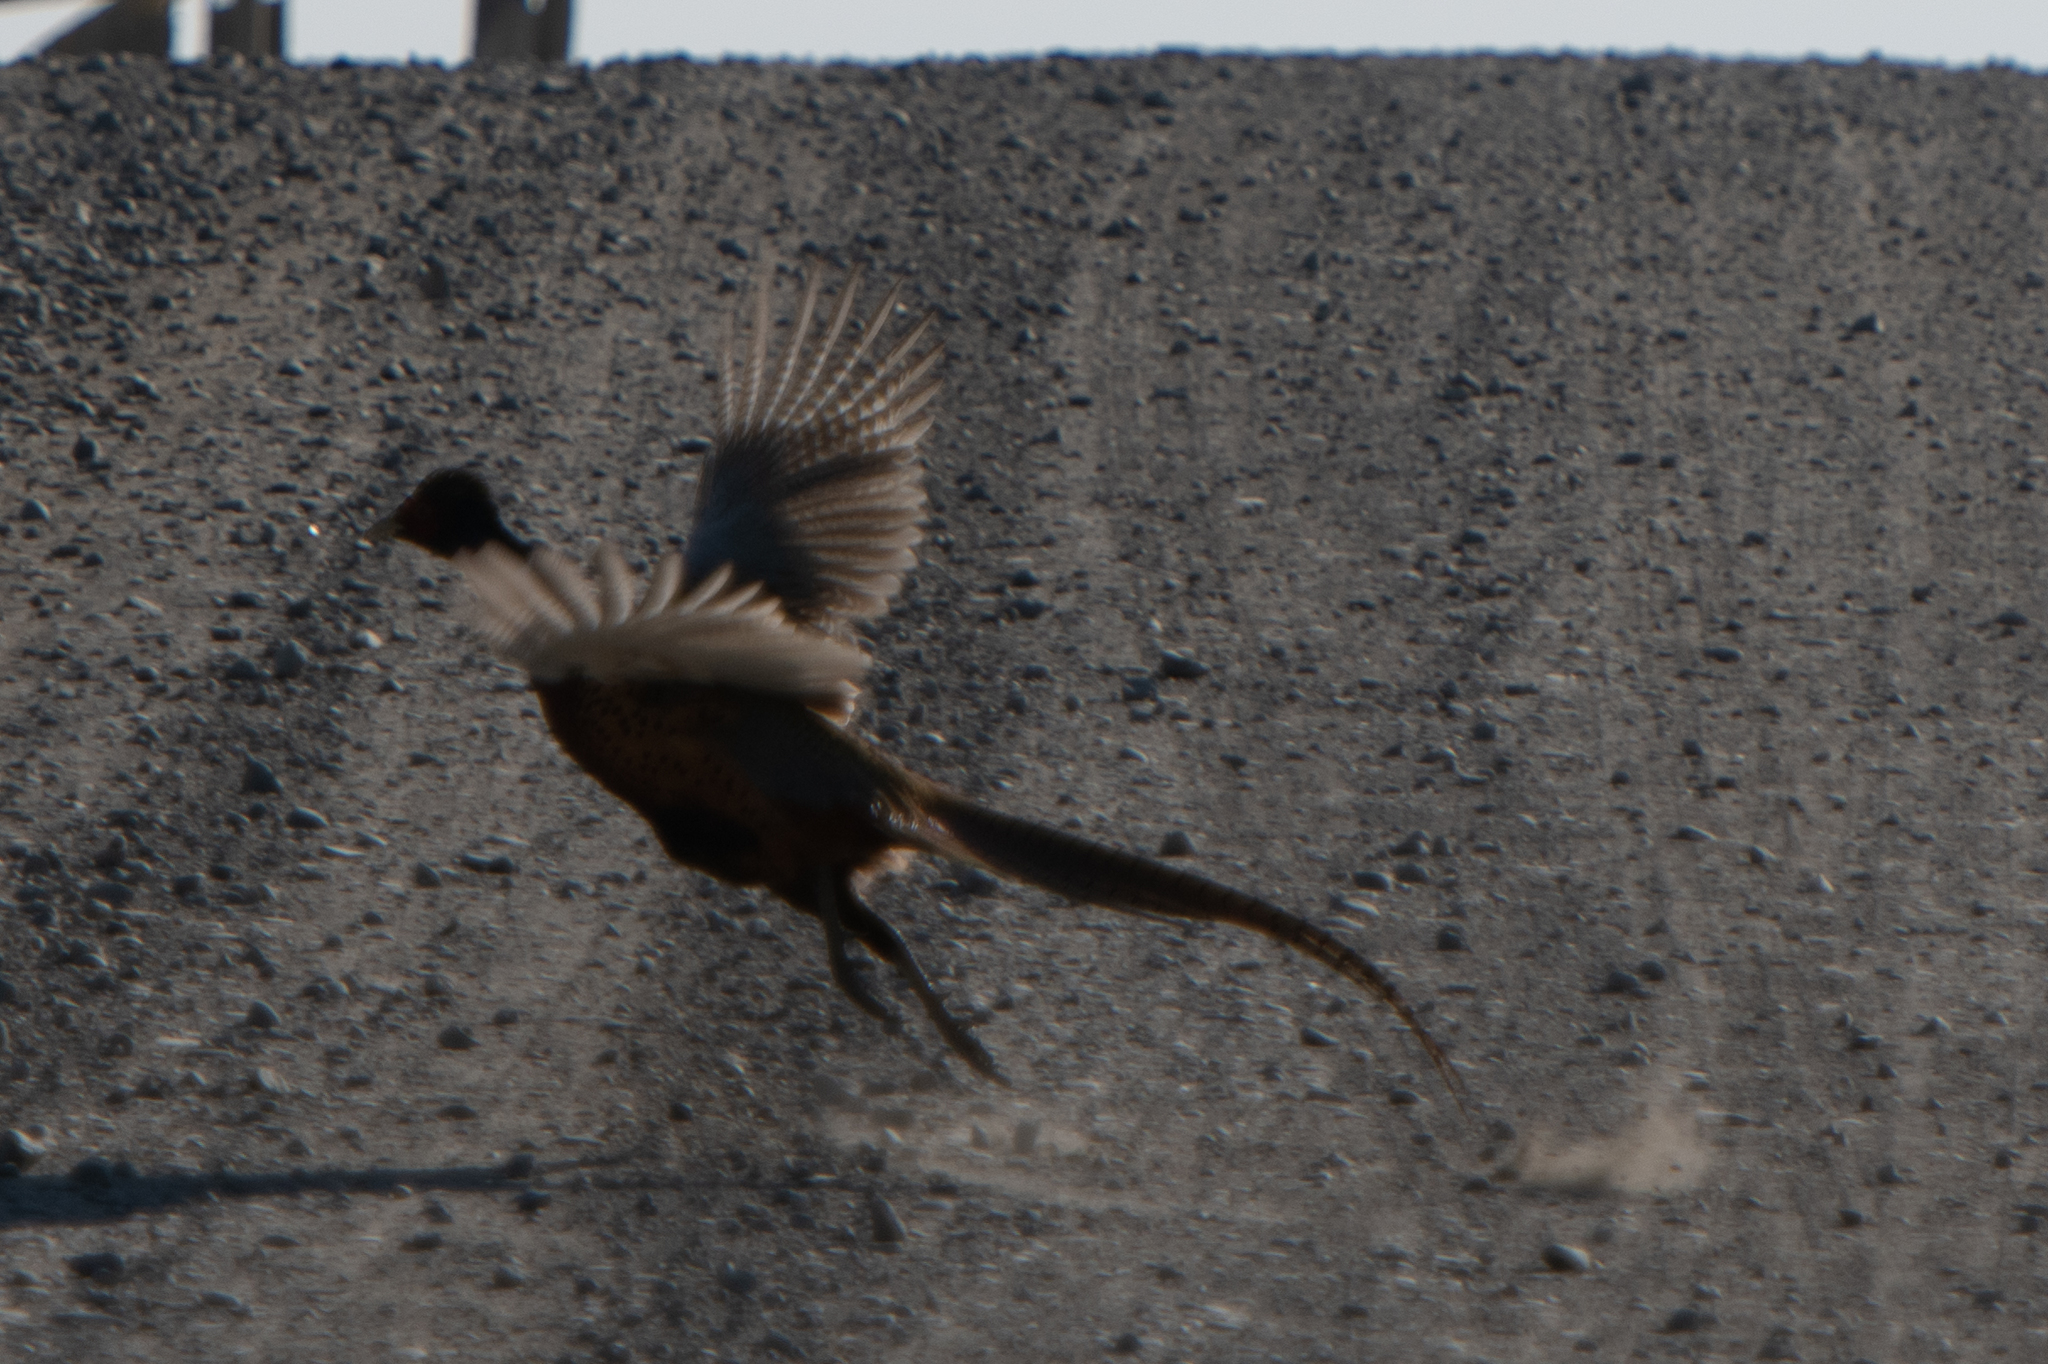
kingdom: Animalia
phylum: Chordata
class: Aves
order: Galliformes
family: Phasianidae
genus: Phasianus
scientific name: Phasianus colchicus
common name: Common pheasant
